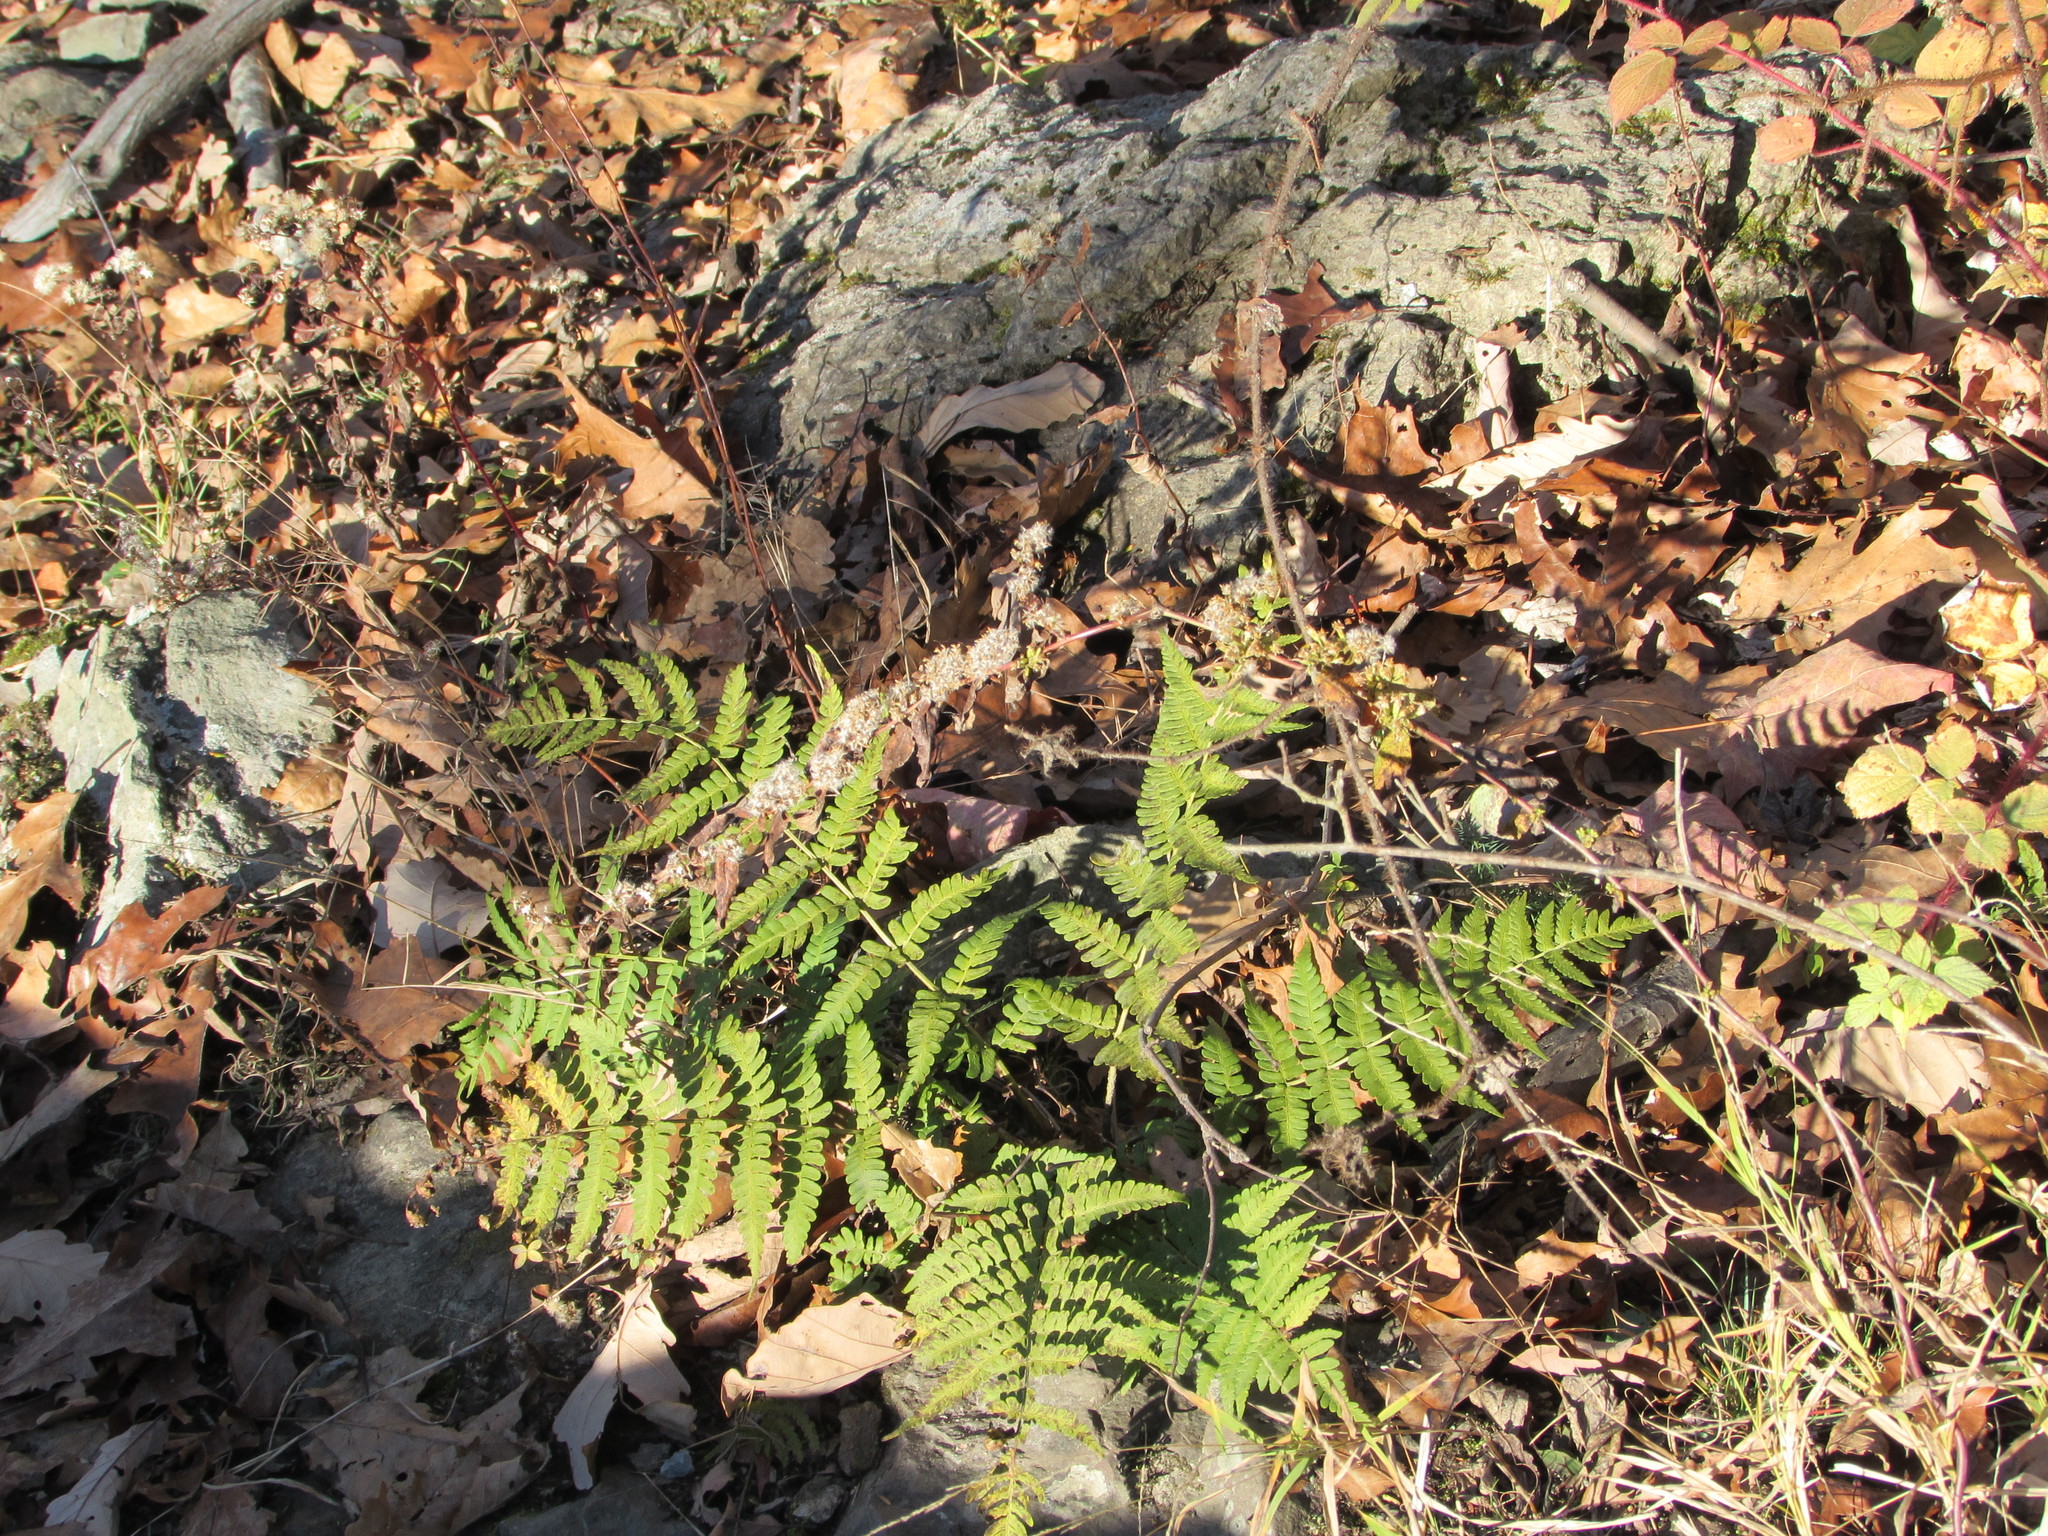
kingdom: Plantae
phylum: Tracheophyta
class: Polypodiopsida
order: Polypodiales
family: Dryopteridaceae
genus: Dryopteris
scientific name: Dryopteris marginalis
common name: Marginal wood fern
